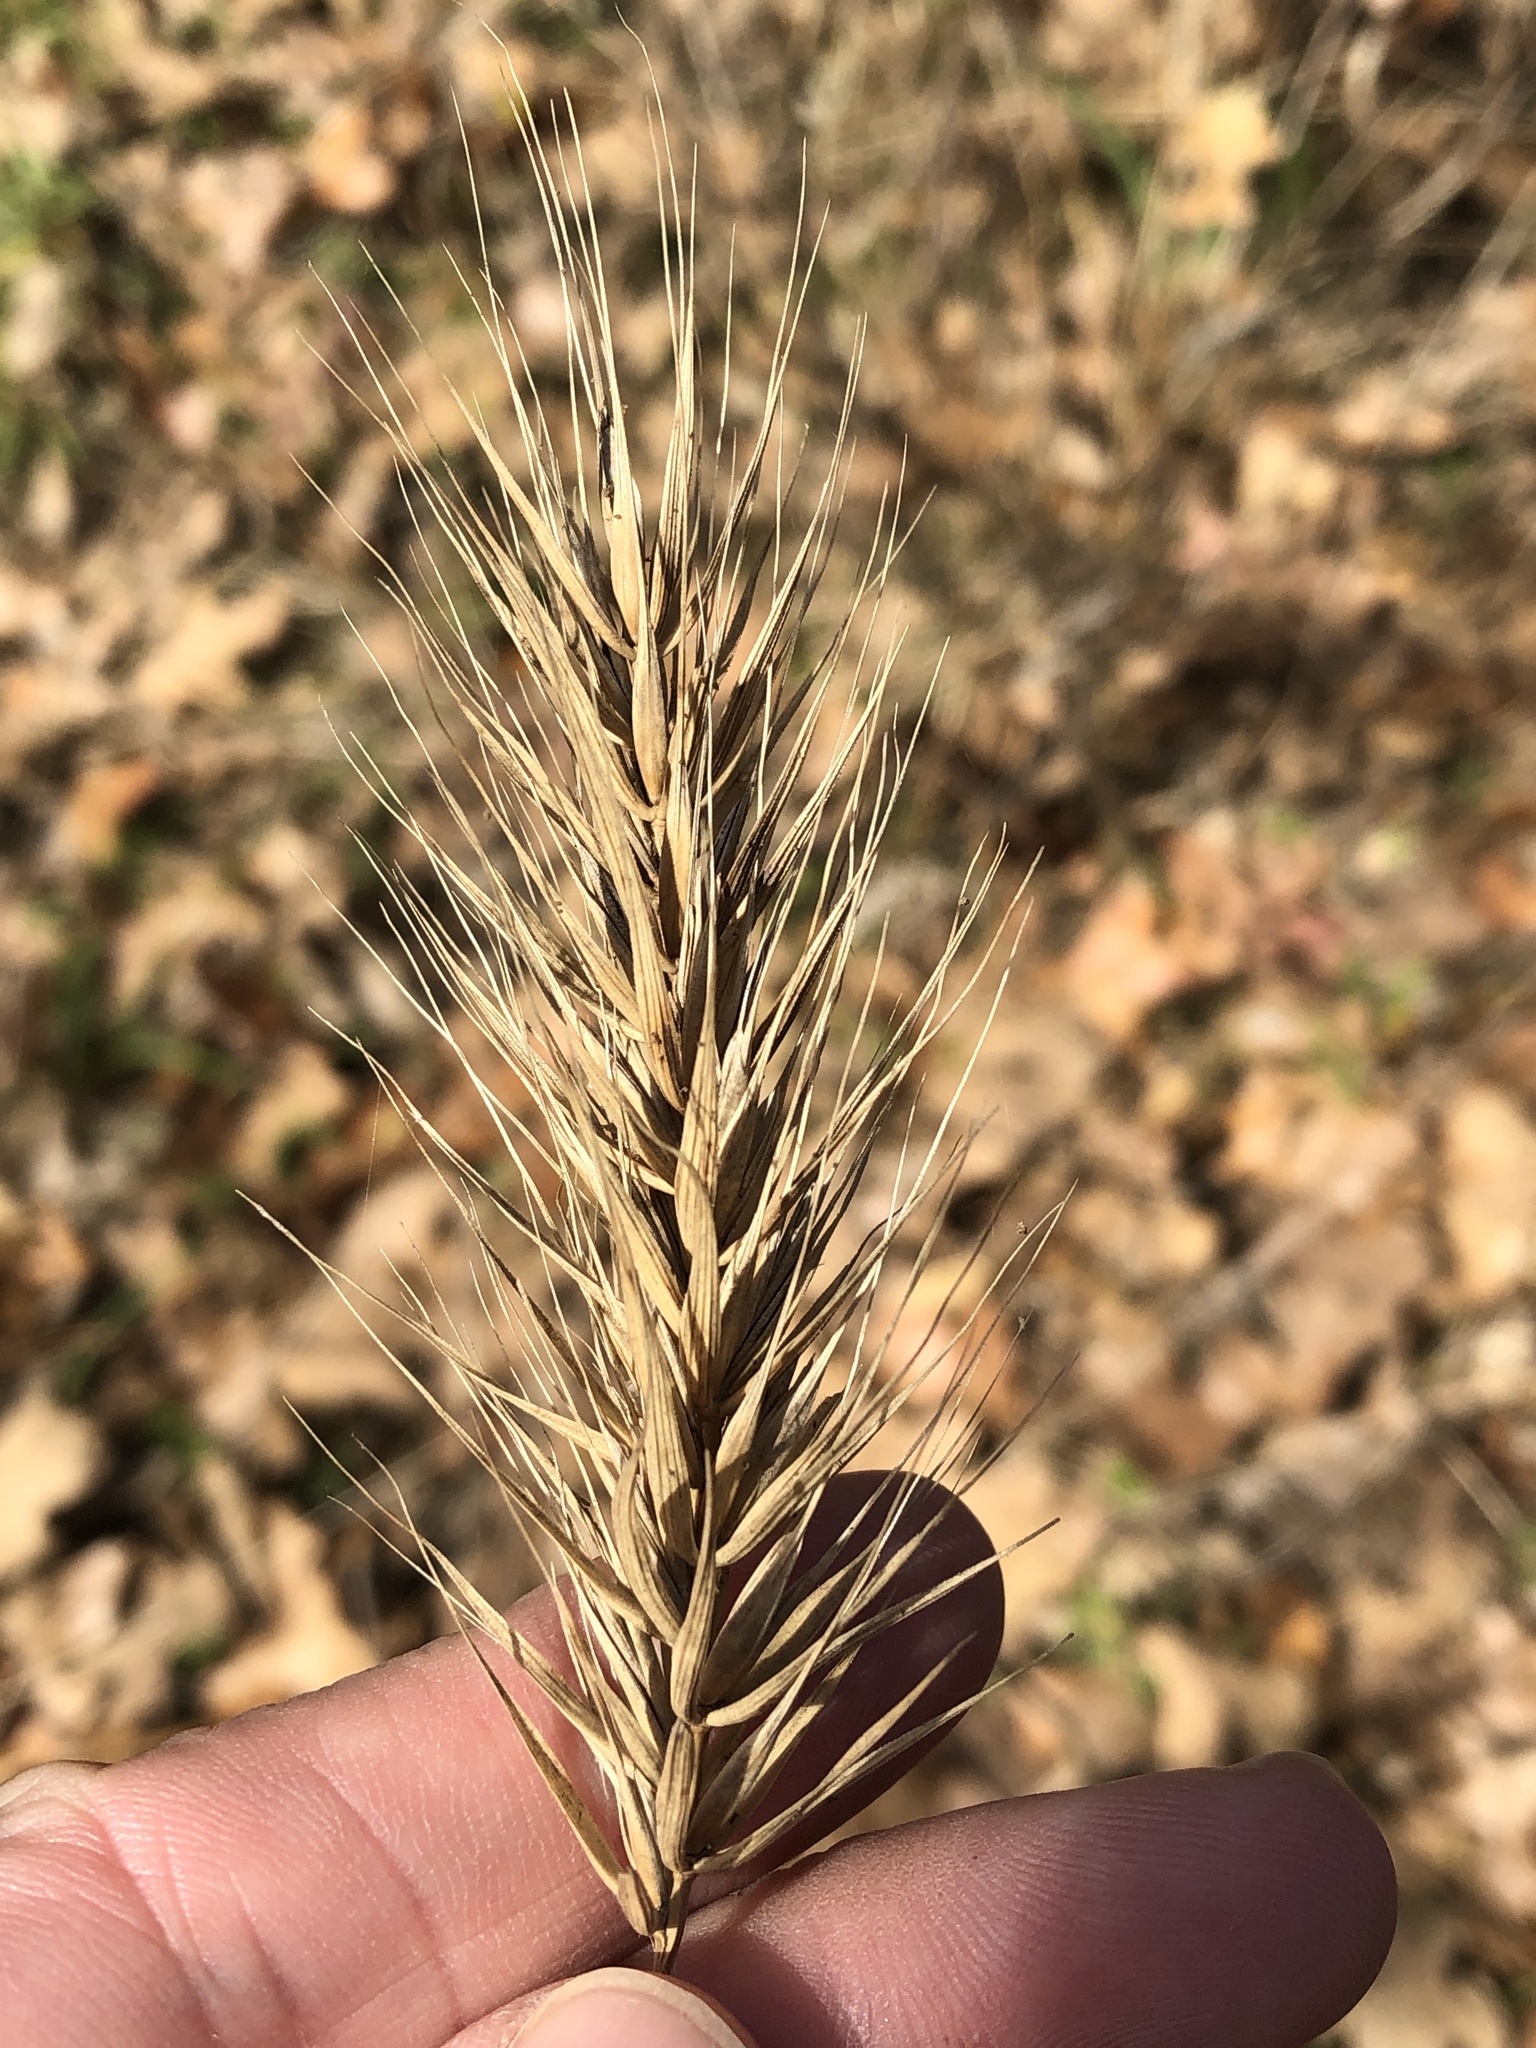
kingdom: Plantae
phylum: Tracheophyta
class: Liliopsida
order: Poales
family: Poaceae
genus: Elymus
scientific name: Elymus canadensis
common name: Canada wild rye
